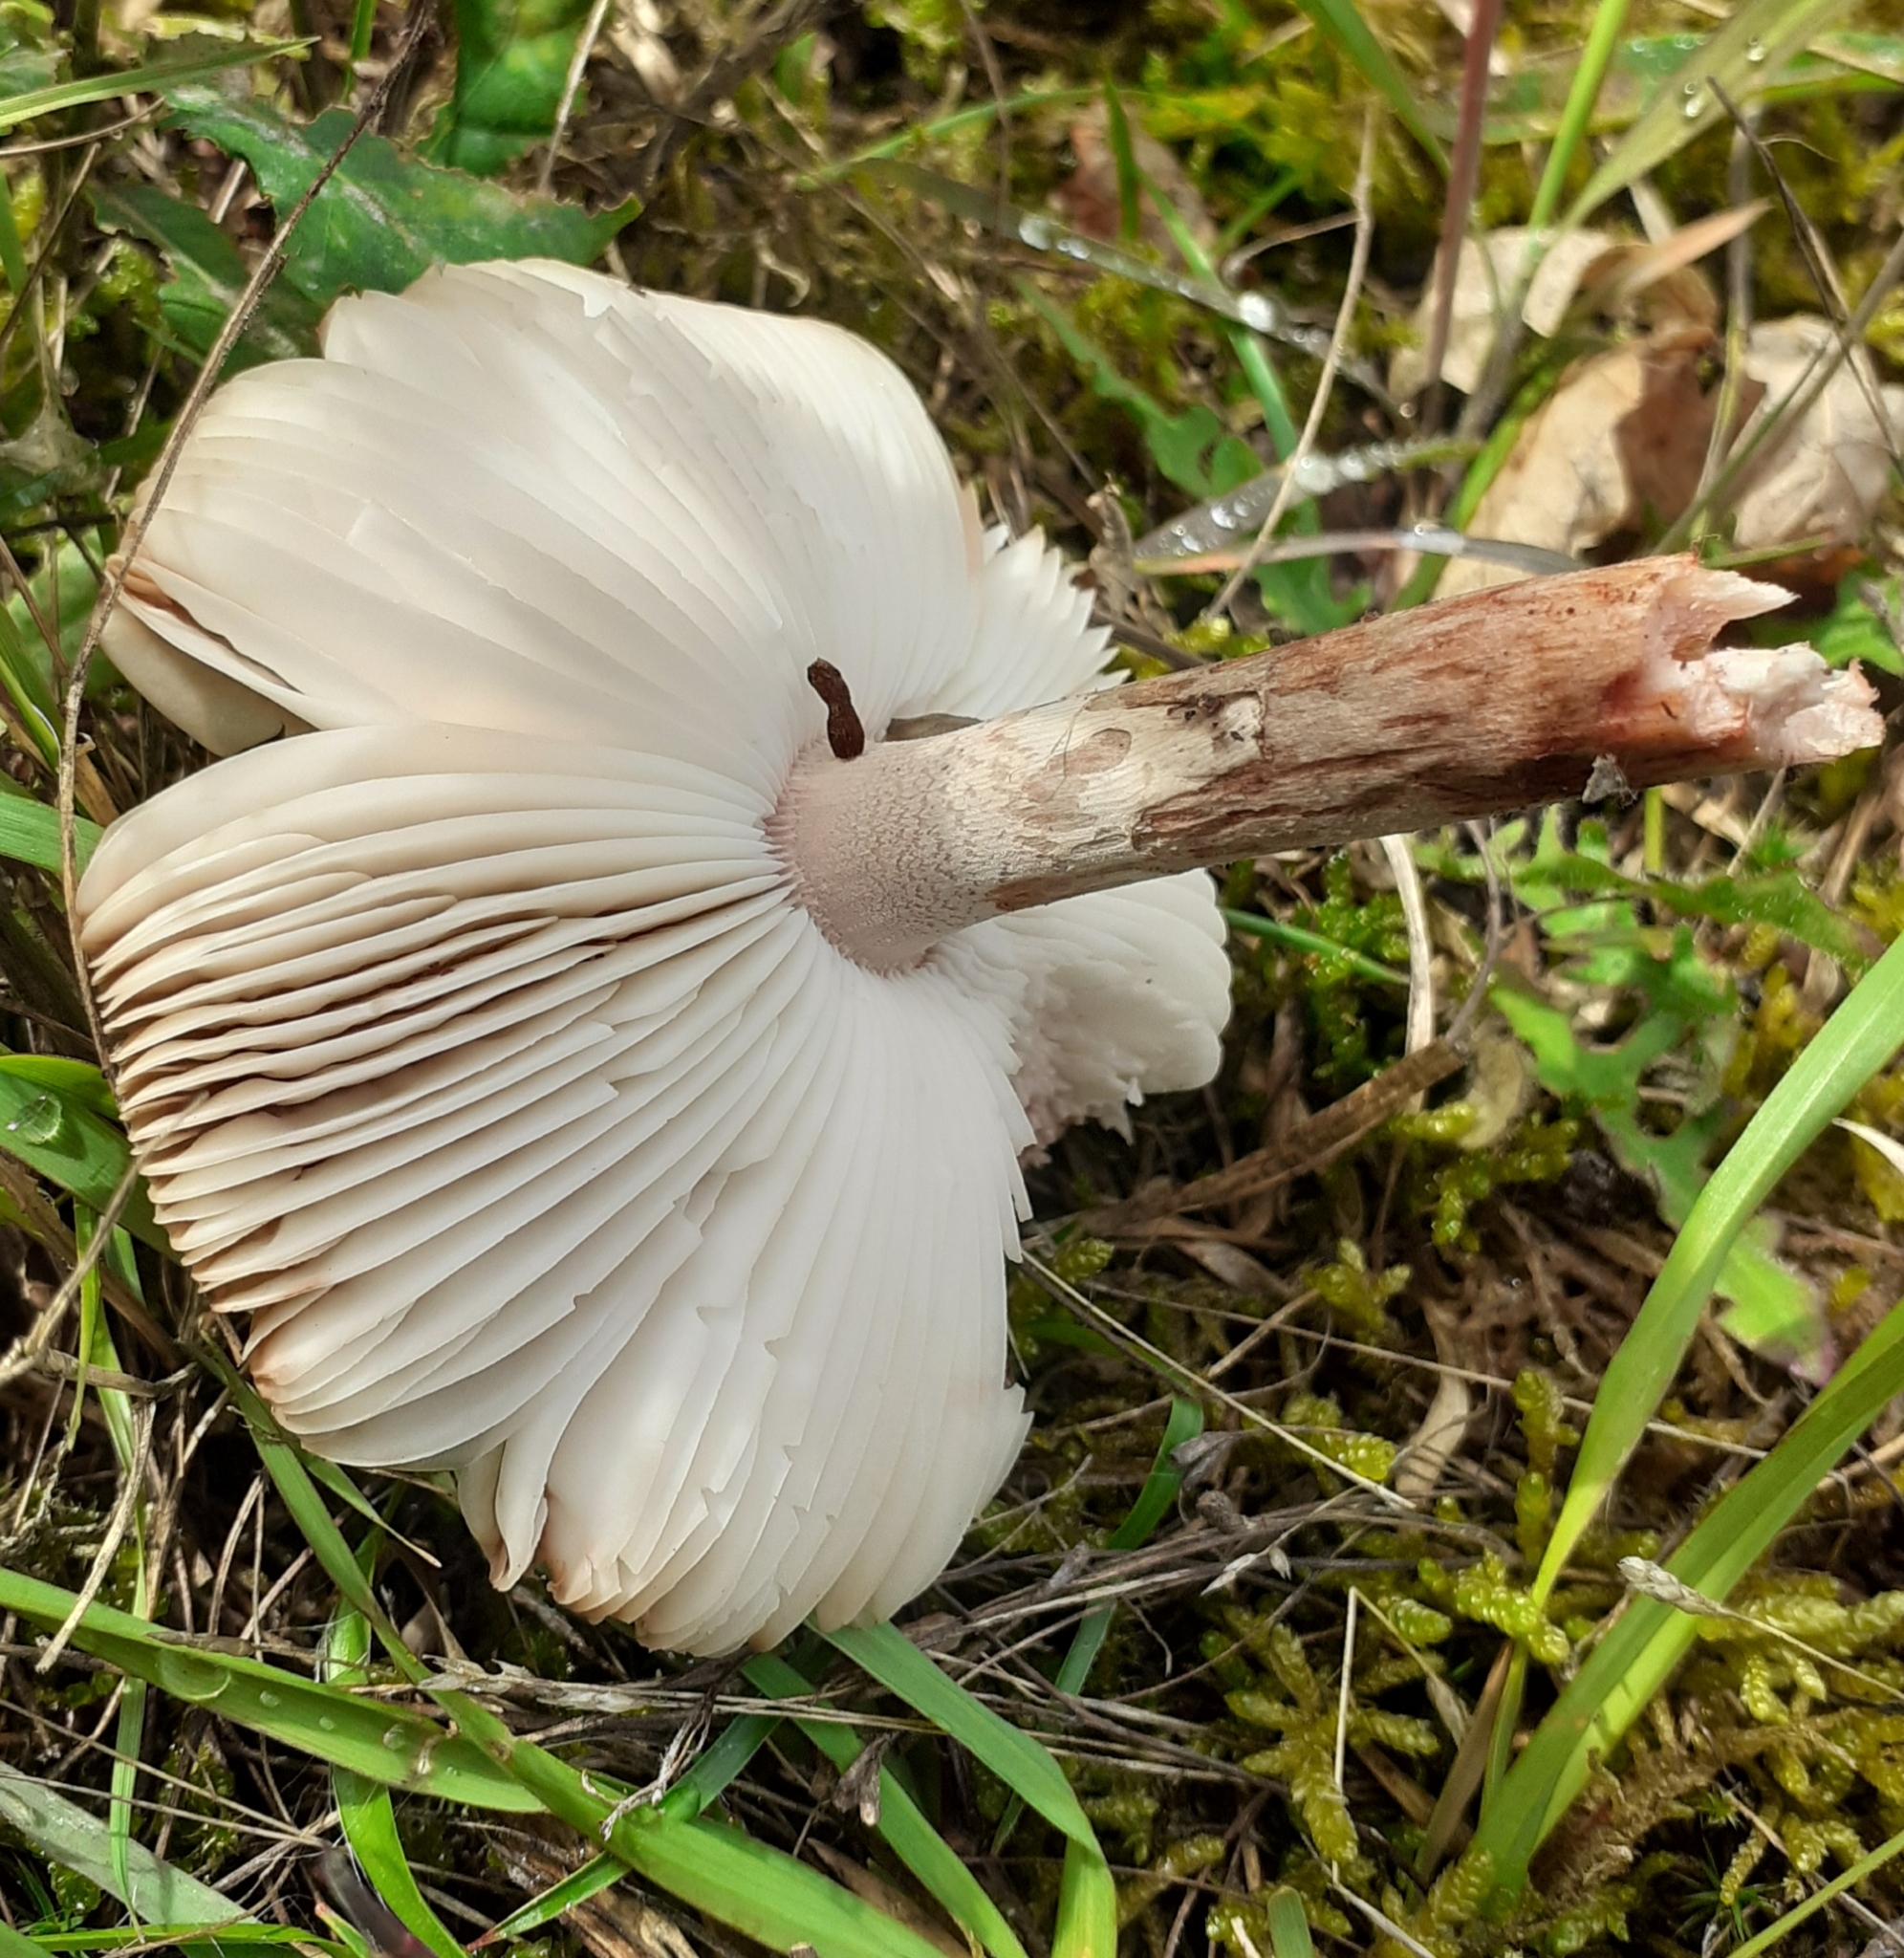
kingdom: Fungi
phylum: Basidiomycota
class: Agaricomycetes
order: Agaricales
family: Amanitaceae
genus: Amanita
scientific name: Amanita rubescens
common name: Blusher
